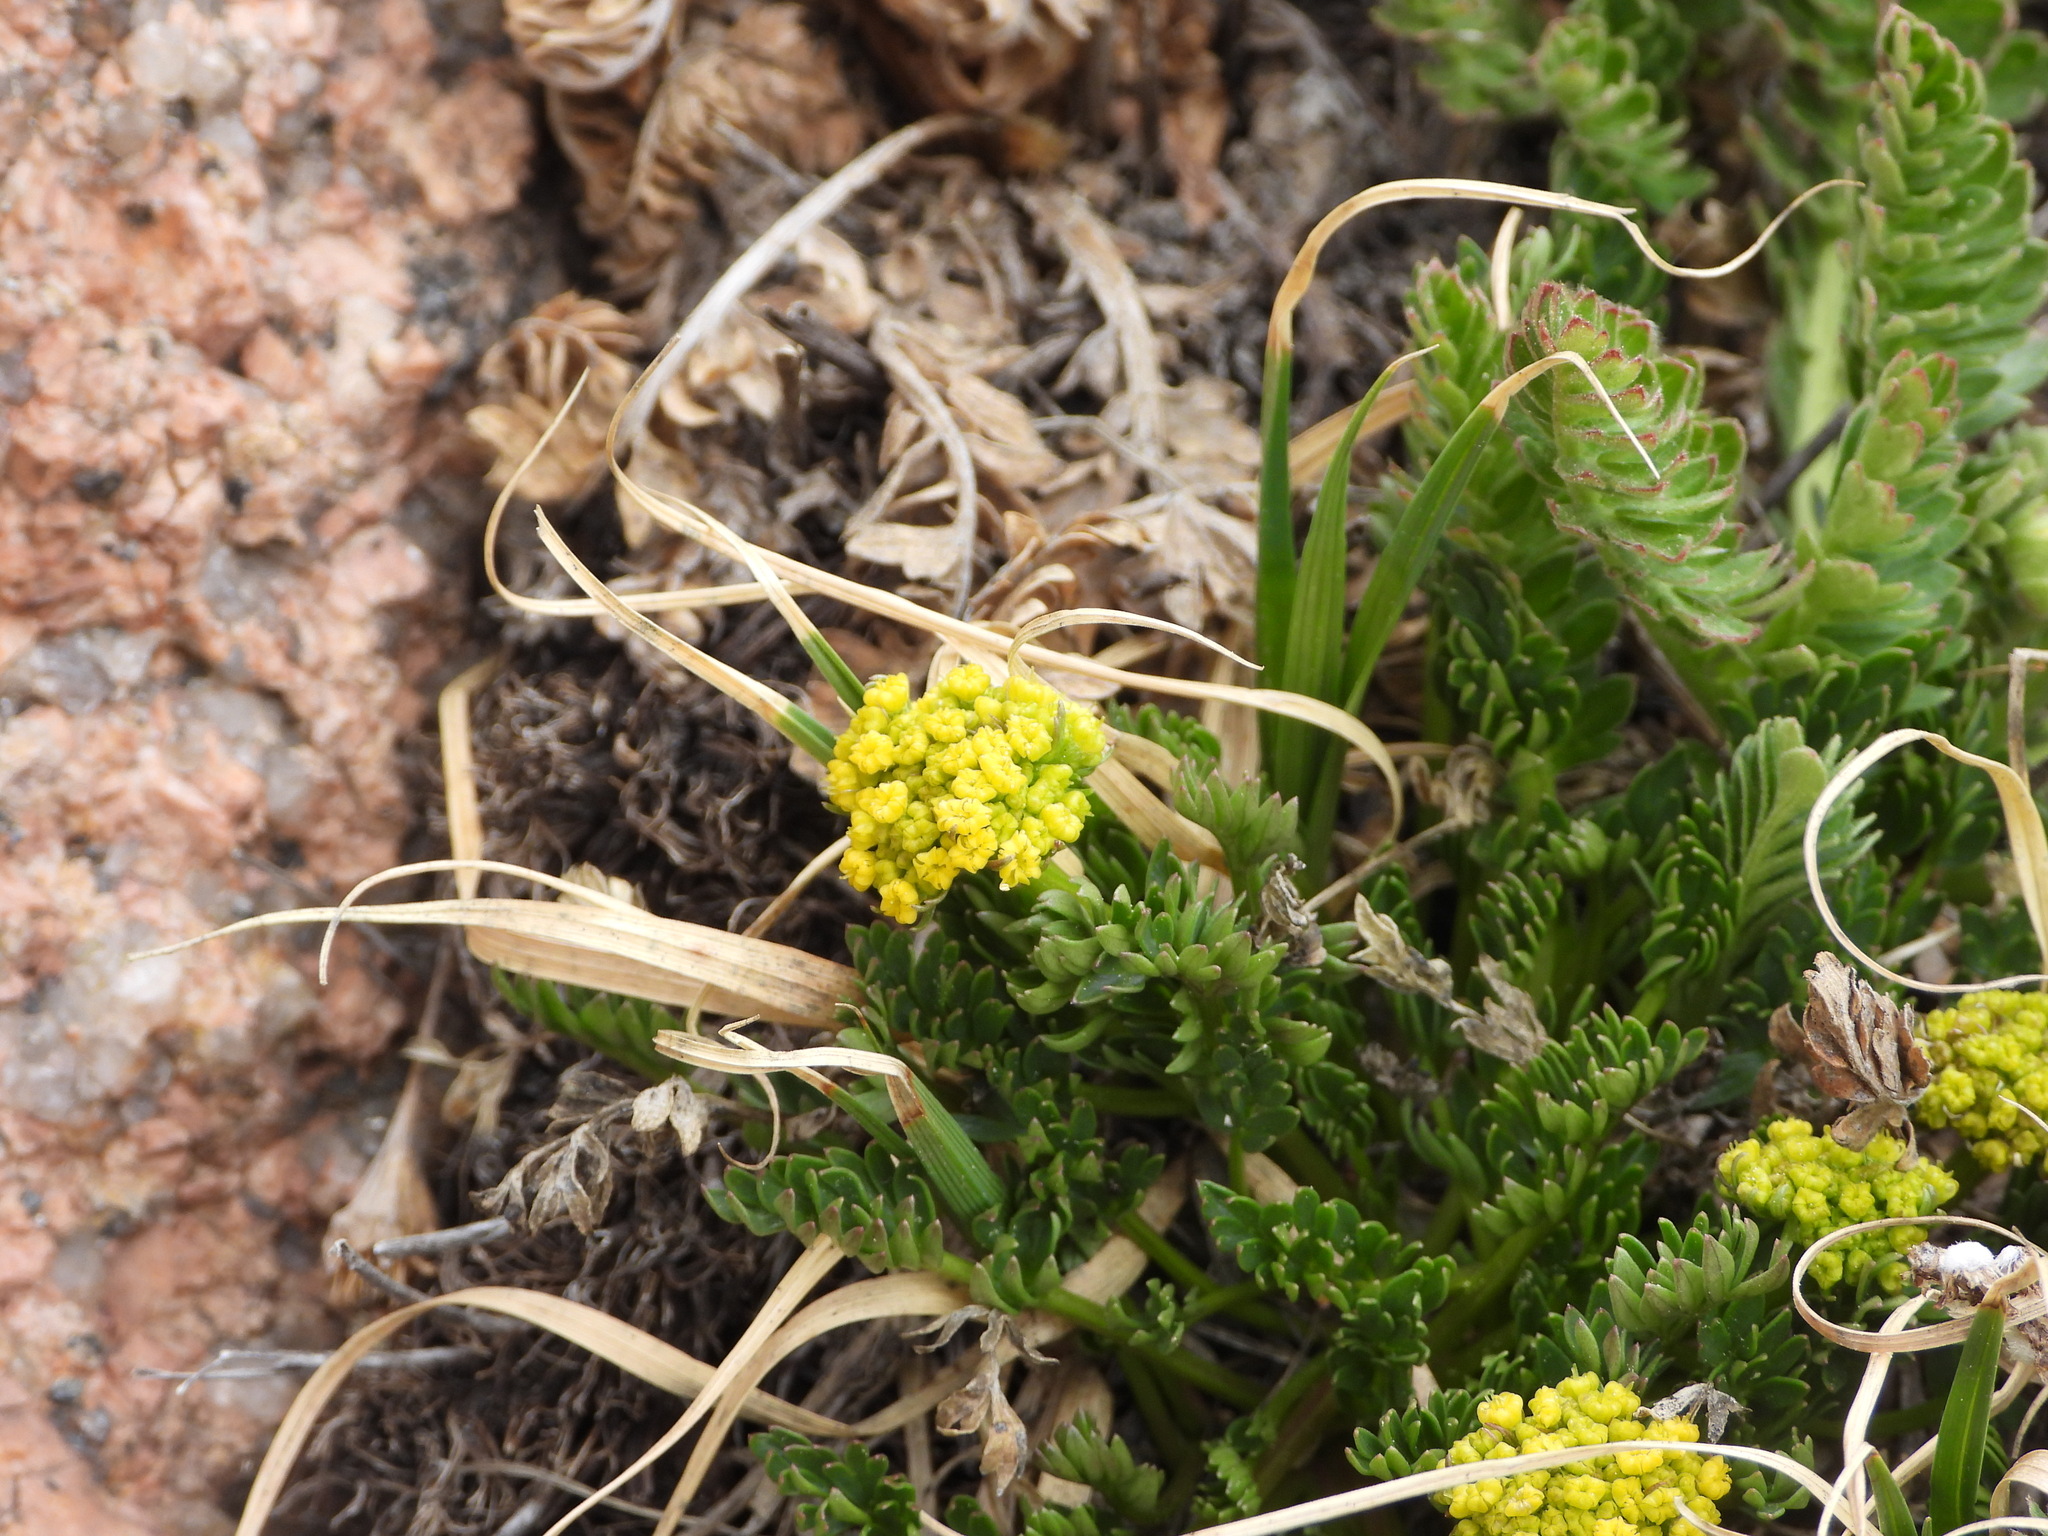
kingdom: Plantae
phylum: Tracheophyta
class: Magnoliopsida
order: Apiales
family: Apiaceae
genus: Cymopterus
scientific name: Cymopterus humilis
